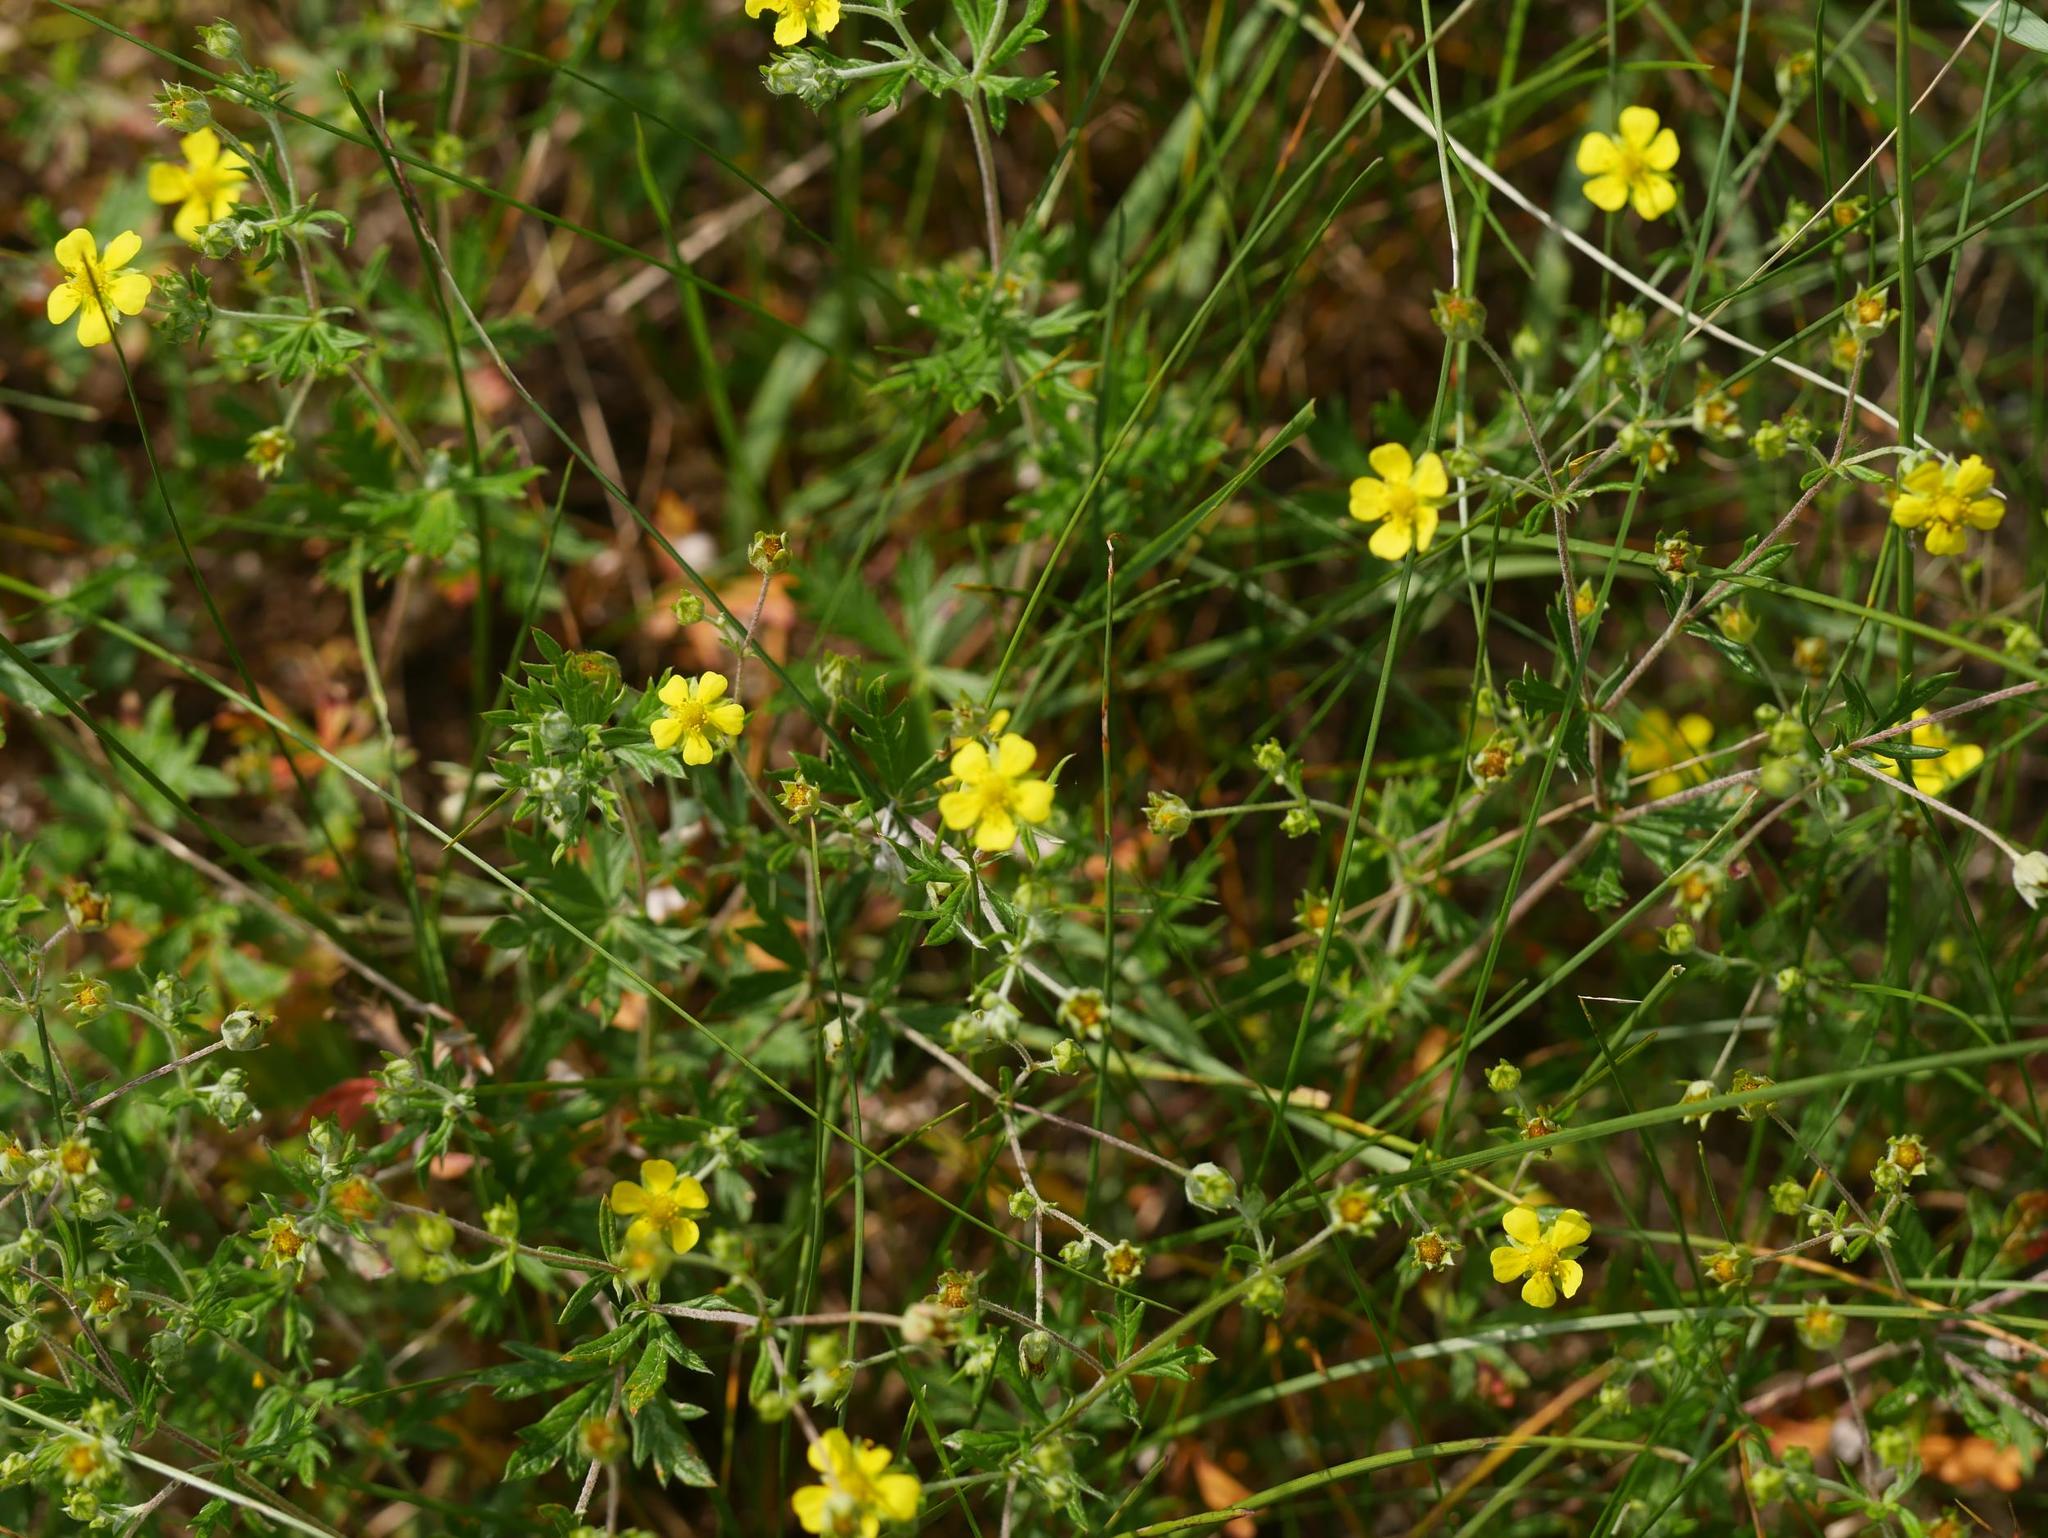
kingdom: Plantae
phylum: Tracheophyta
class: Magnoliopsida
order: Rosales
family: Rosaceae
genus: Potentilla
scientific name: Potentilla argentea
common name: Hoary cinquefoil
